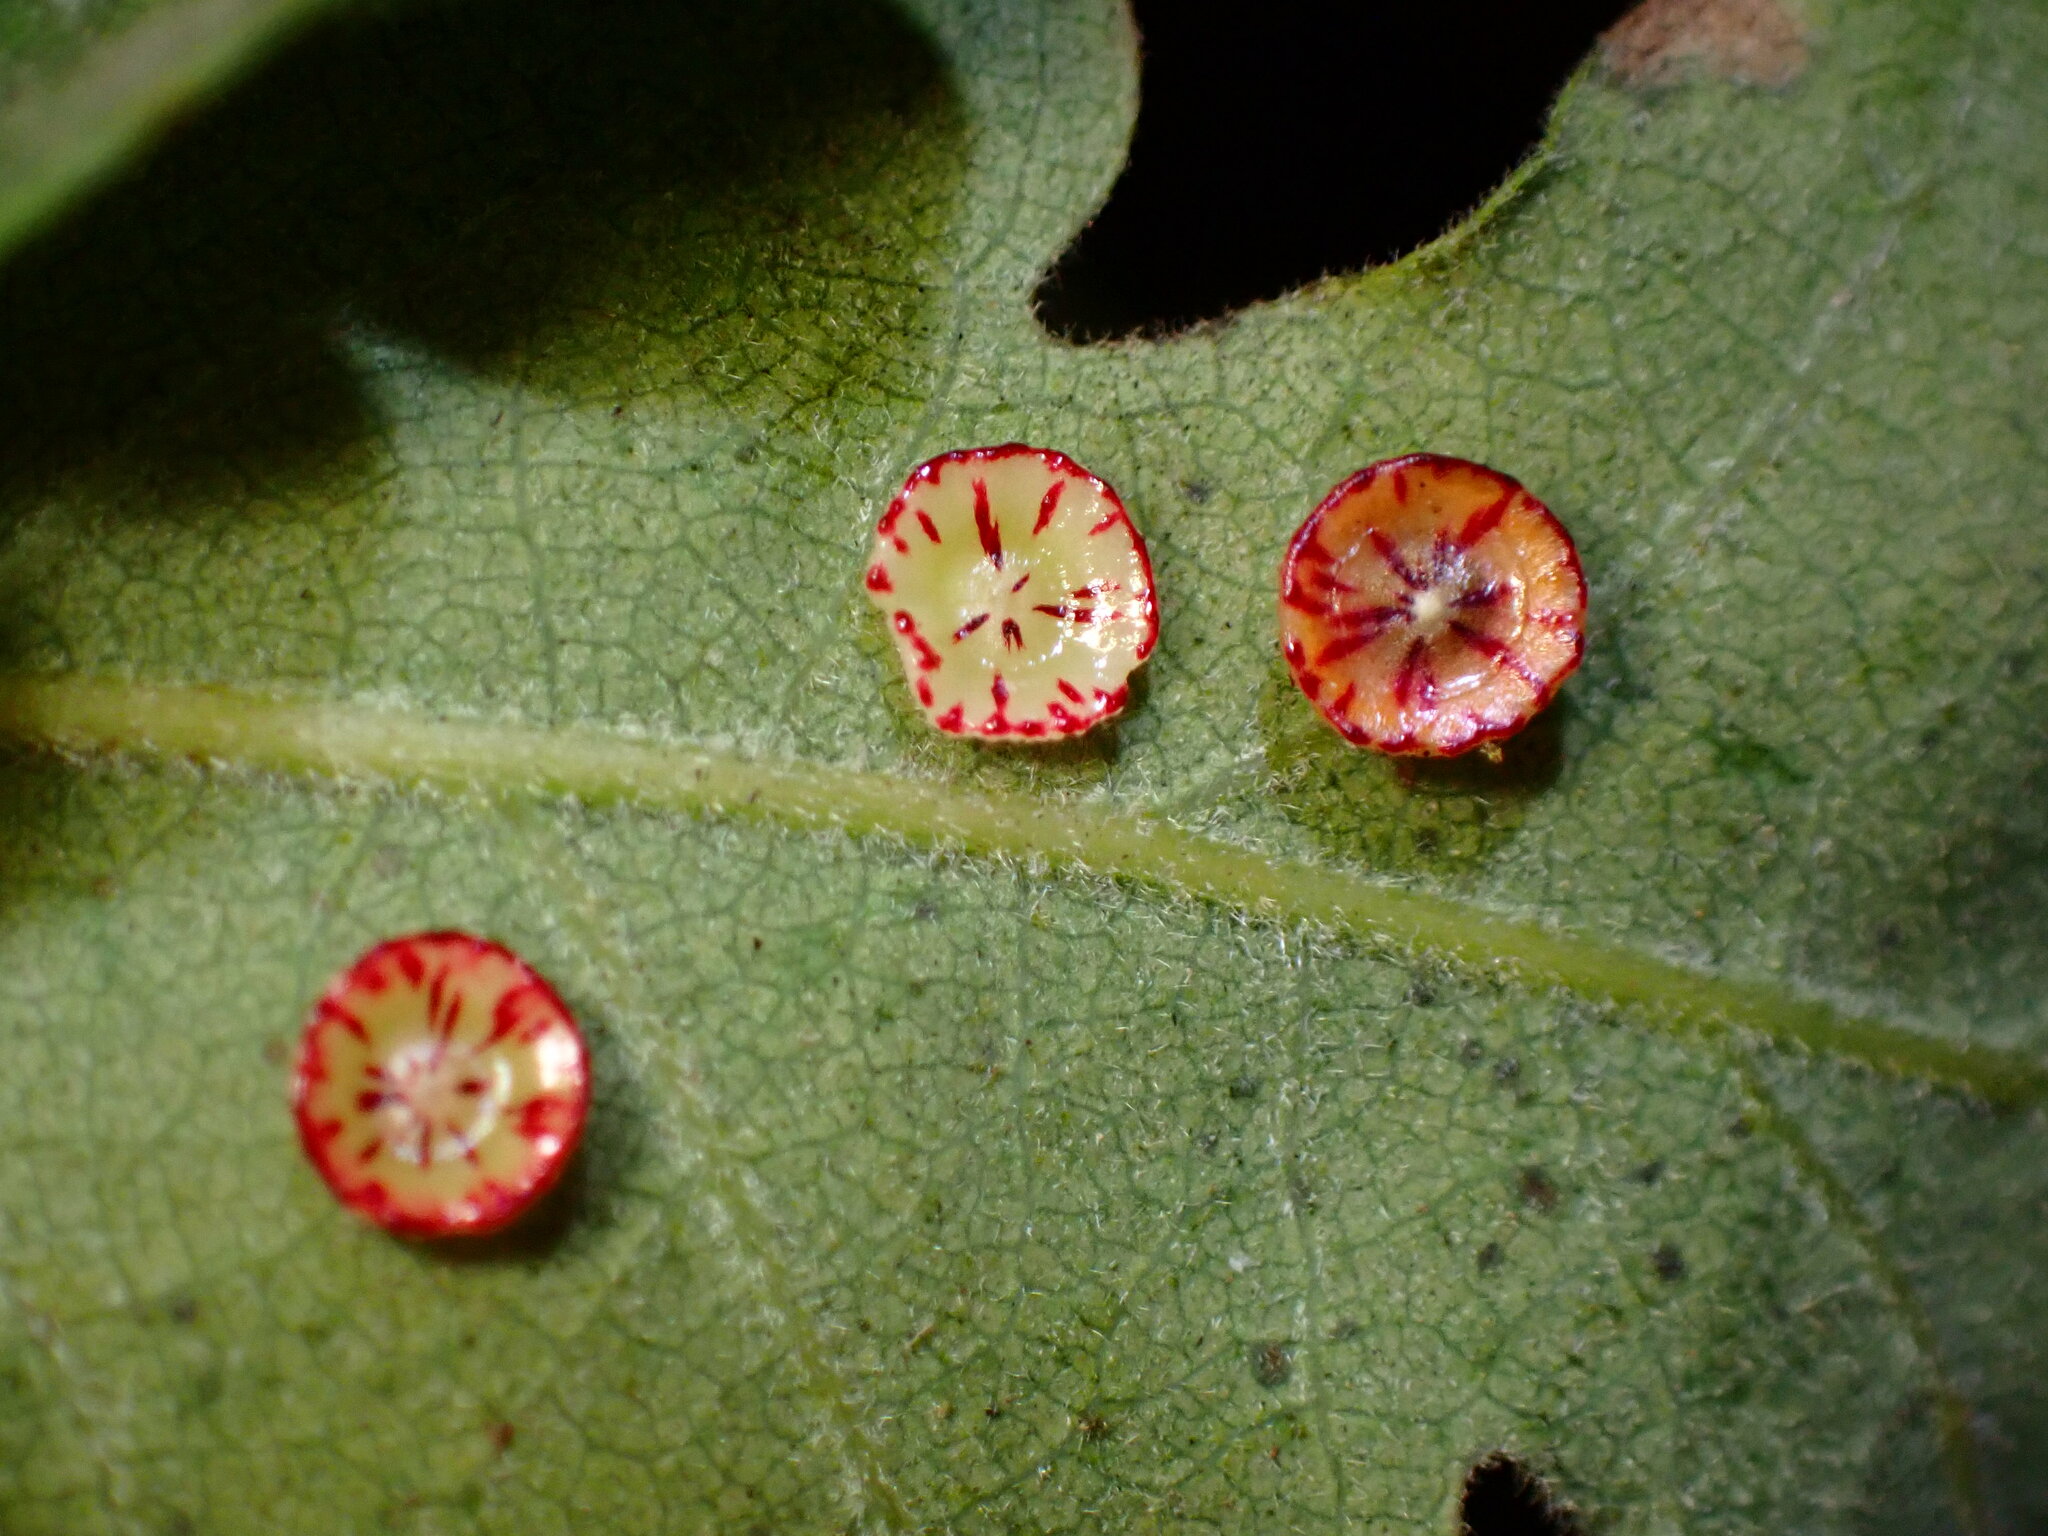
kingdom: Animalia
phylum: Arthropoda
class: Insecta
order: Hymenoptera
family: Cynipidae
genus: Andricus
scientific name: Andricus
